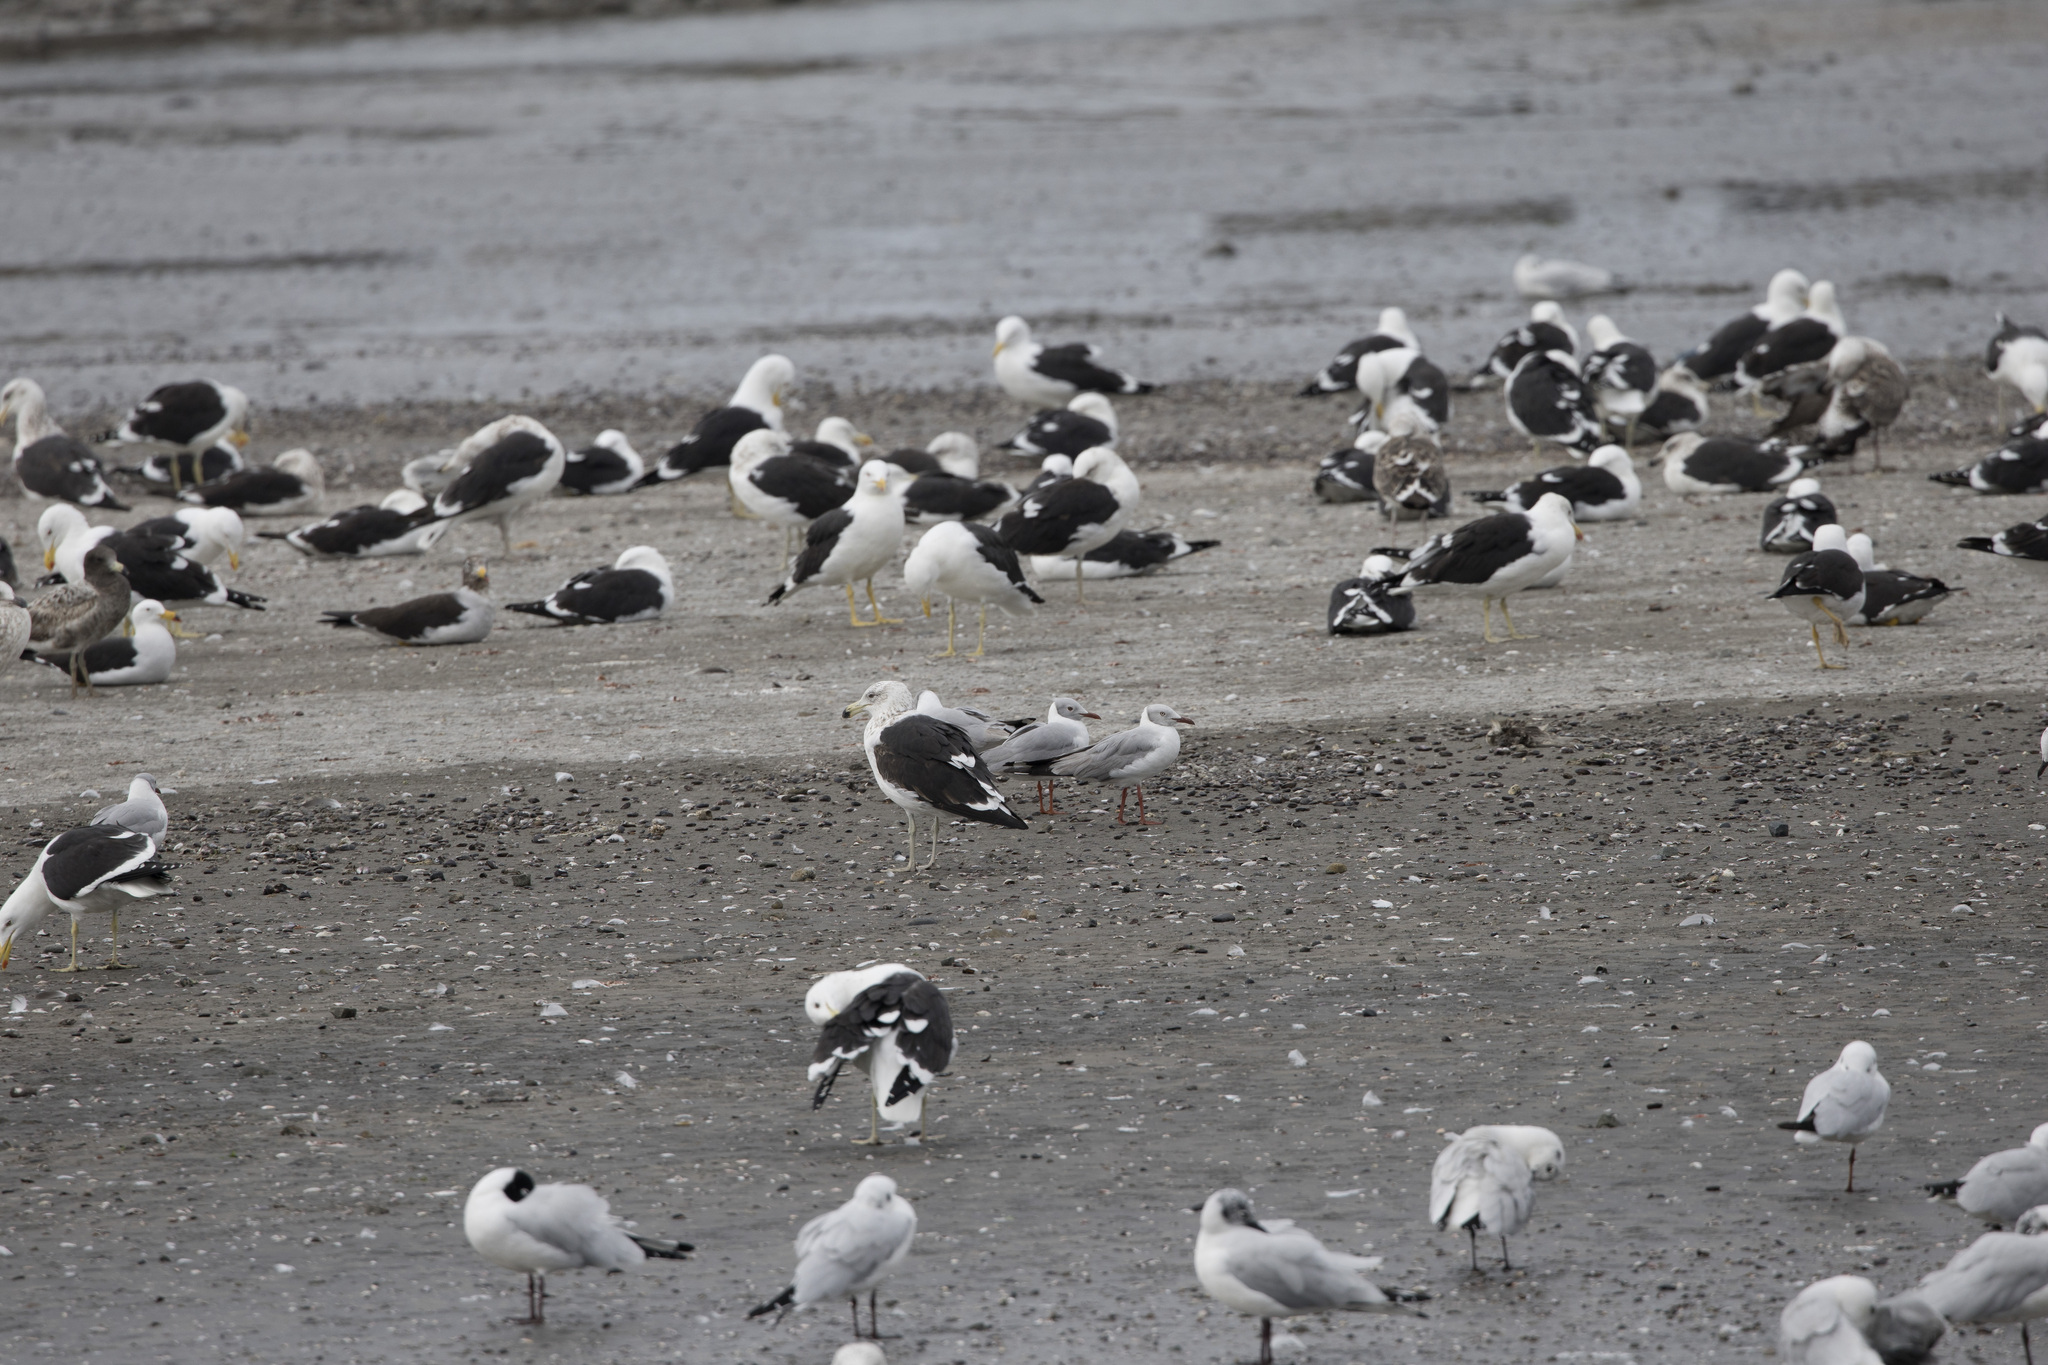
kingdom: Animalia
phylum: Chordata
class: Aves
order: Charadriiformes
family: Laridae
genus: Chroicocephalus
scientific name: Chroicocephalus cirrocephalus
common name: Grey-headed gull
